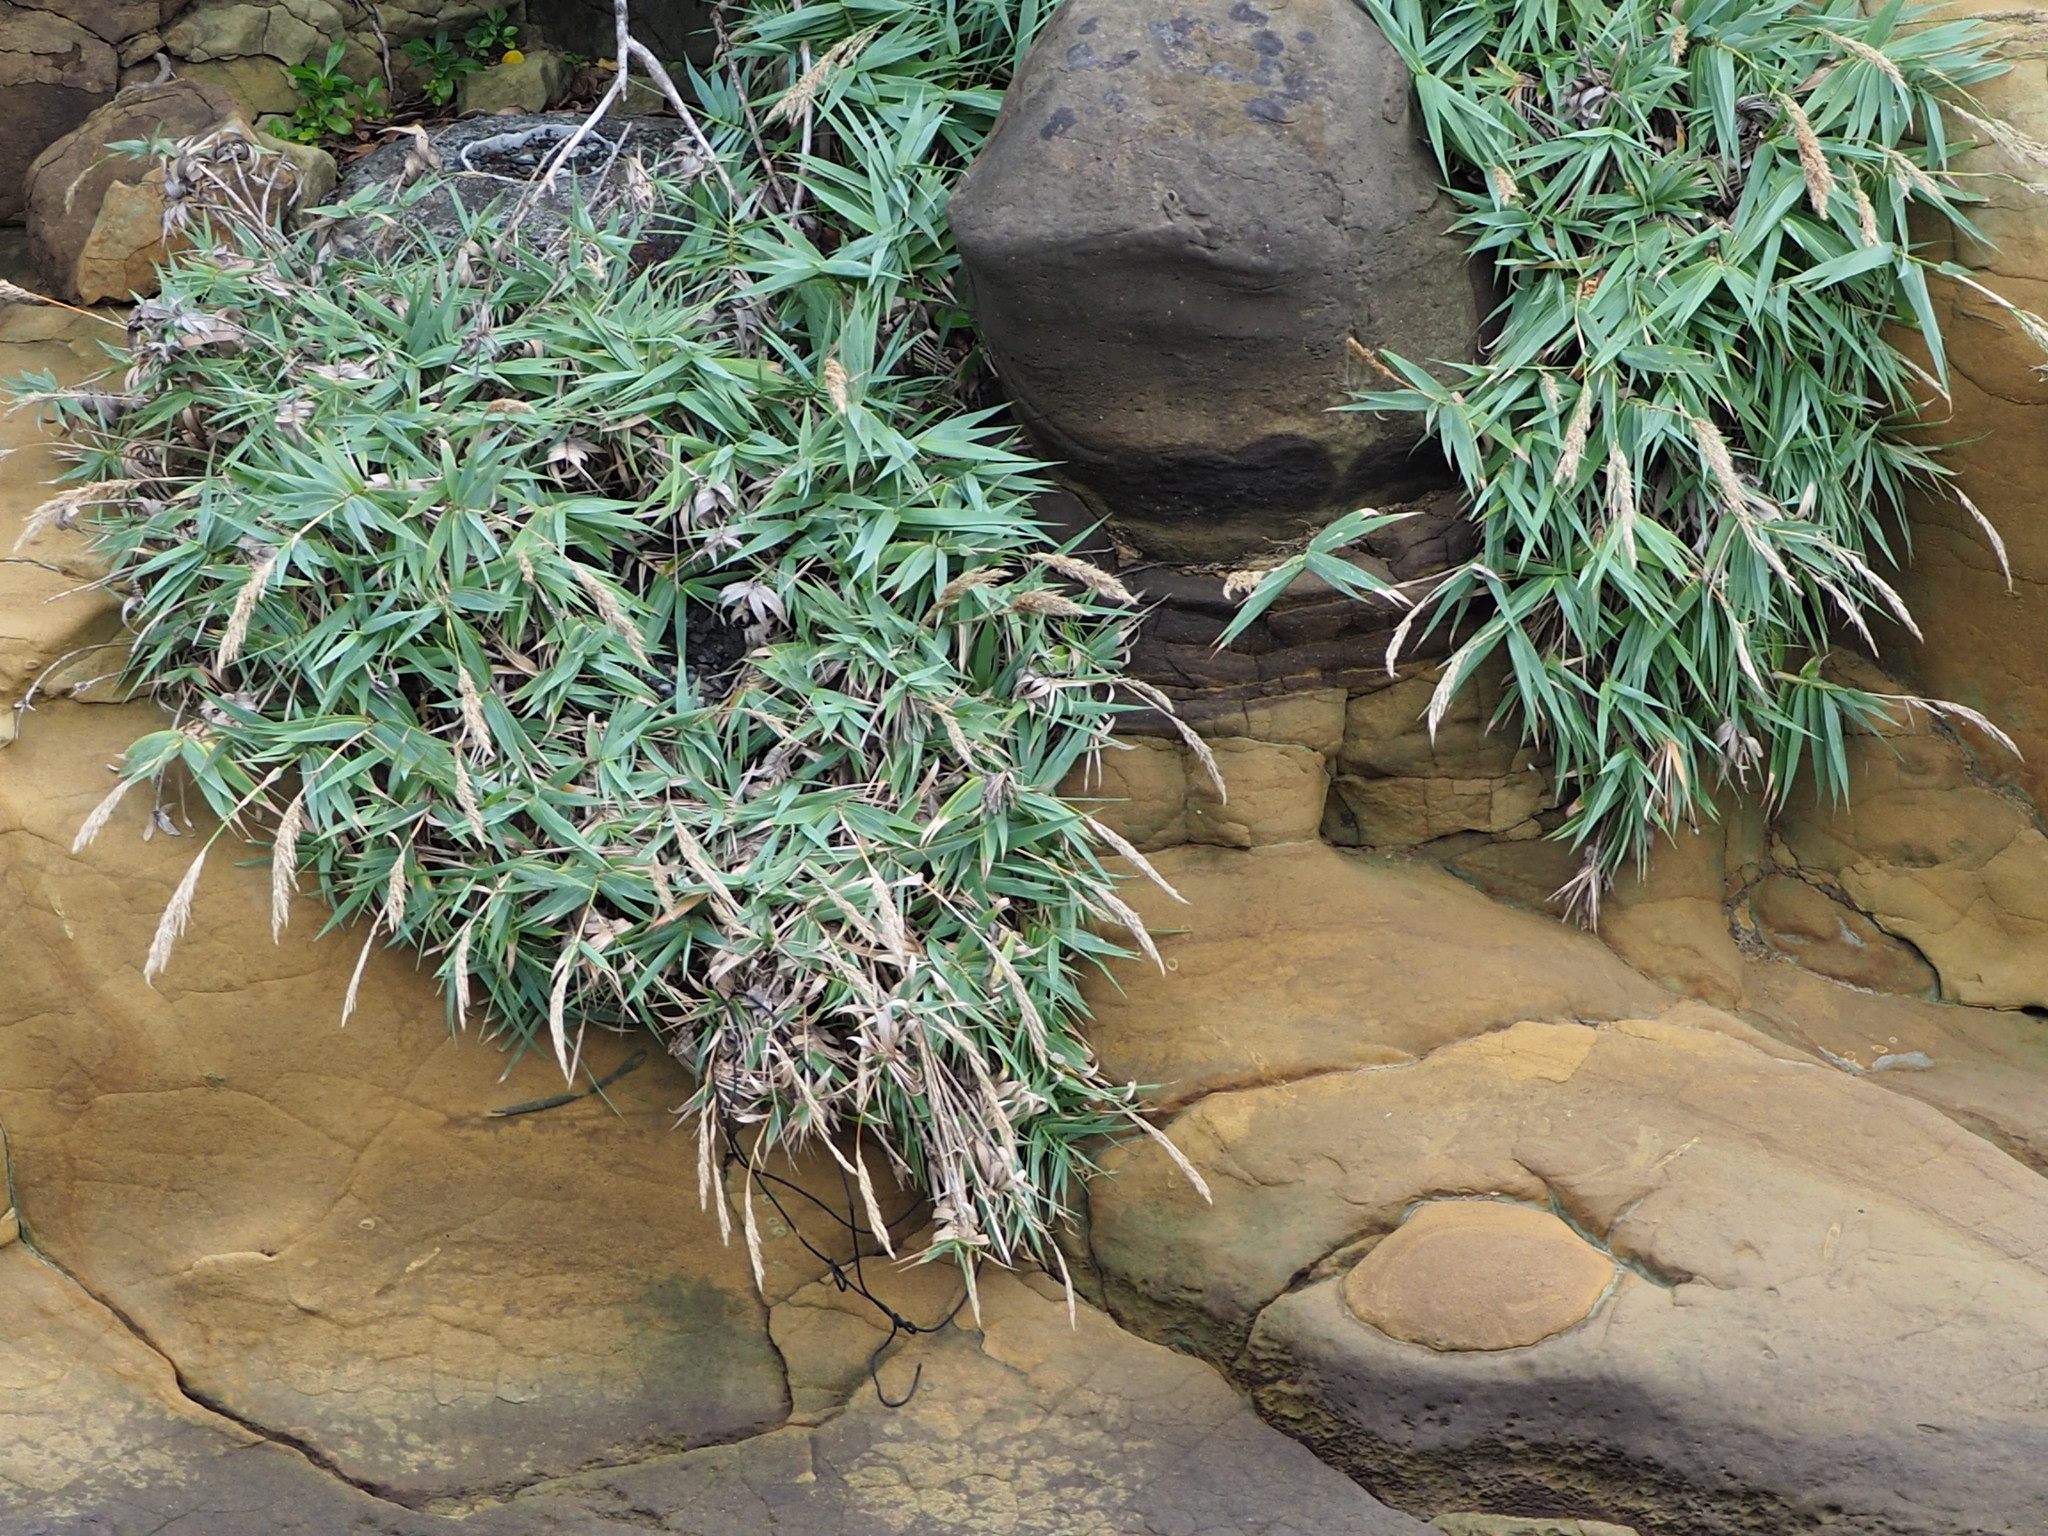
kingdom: Plantae
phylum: Tracheophyta
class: Liliopsida
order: Poales
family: Poaceae
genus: Arundo
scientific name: Arundo formosana
